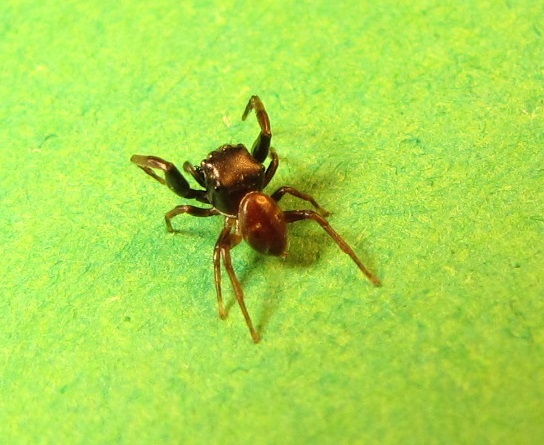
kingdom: Animalia
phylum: Arthropoda
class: Arachnida
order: Araneae
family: Salticidae
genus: Zygoballus
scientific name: Zygoballus sexpunctatus
